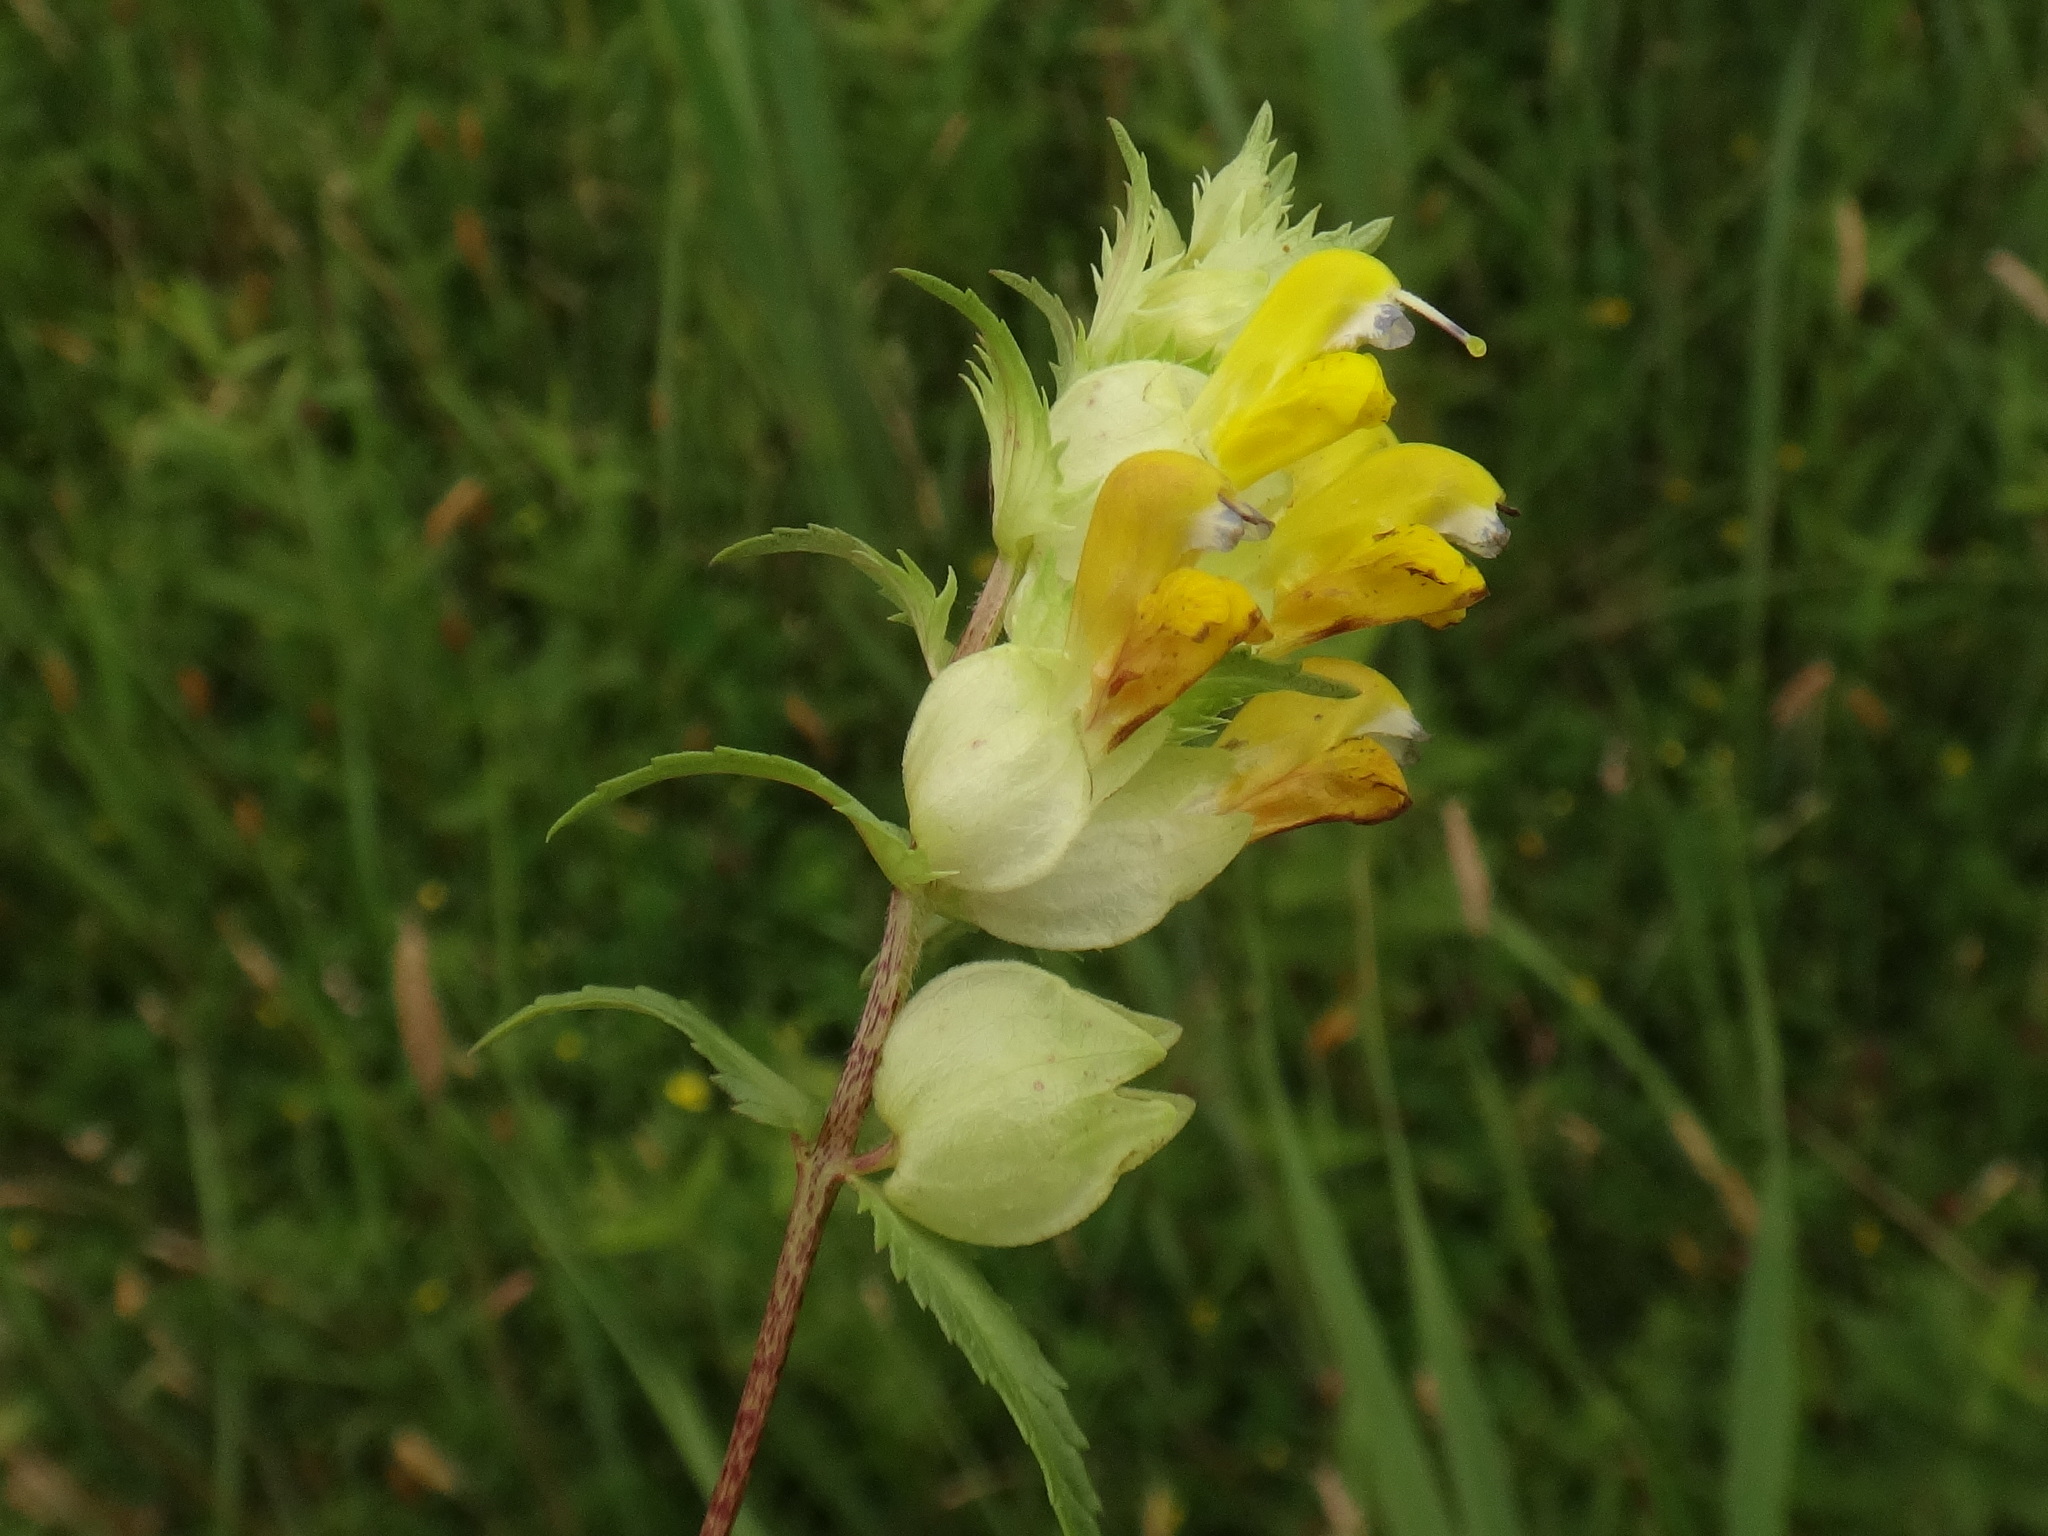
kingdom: Plantae
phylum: Tracheophyta
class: Magnoliopsida
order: Lamiales
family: Orobanchaceae
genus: Rhinanthus
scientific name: Rhinanthus serotinus
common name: Late-flowering yellow rattle
